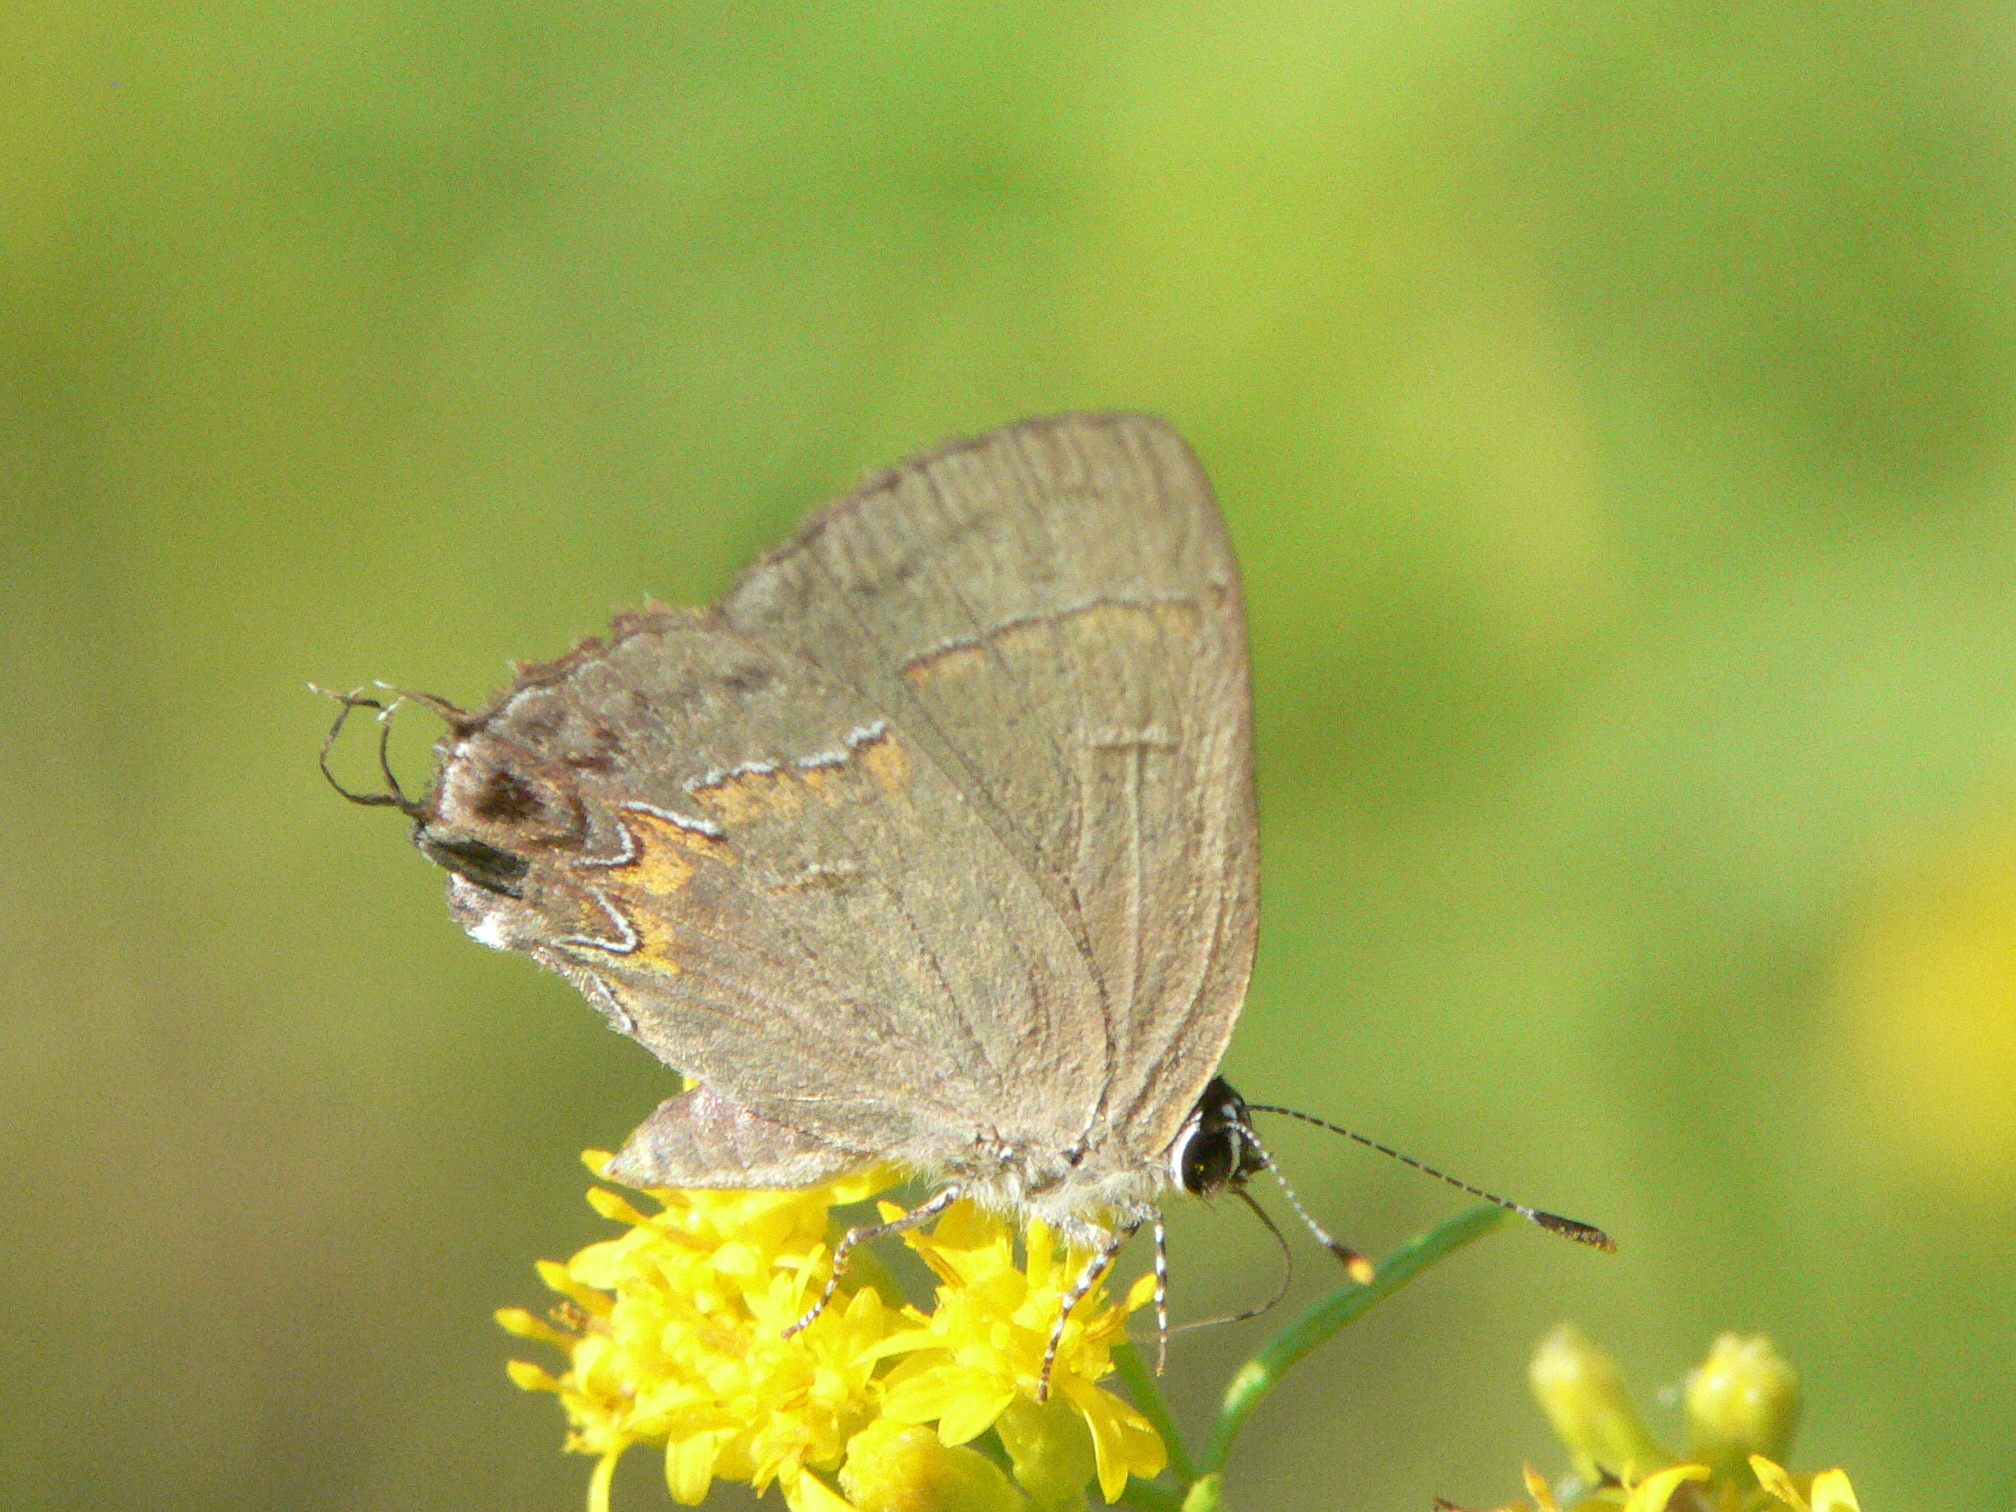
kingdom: Animalia
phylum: Arthropoda
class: Insecta
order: Lepidoptera
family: Lycaenidae
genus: Calycopis
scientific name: Calycopis cecrops
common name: Red-banded hairstreak
